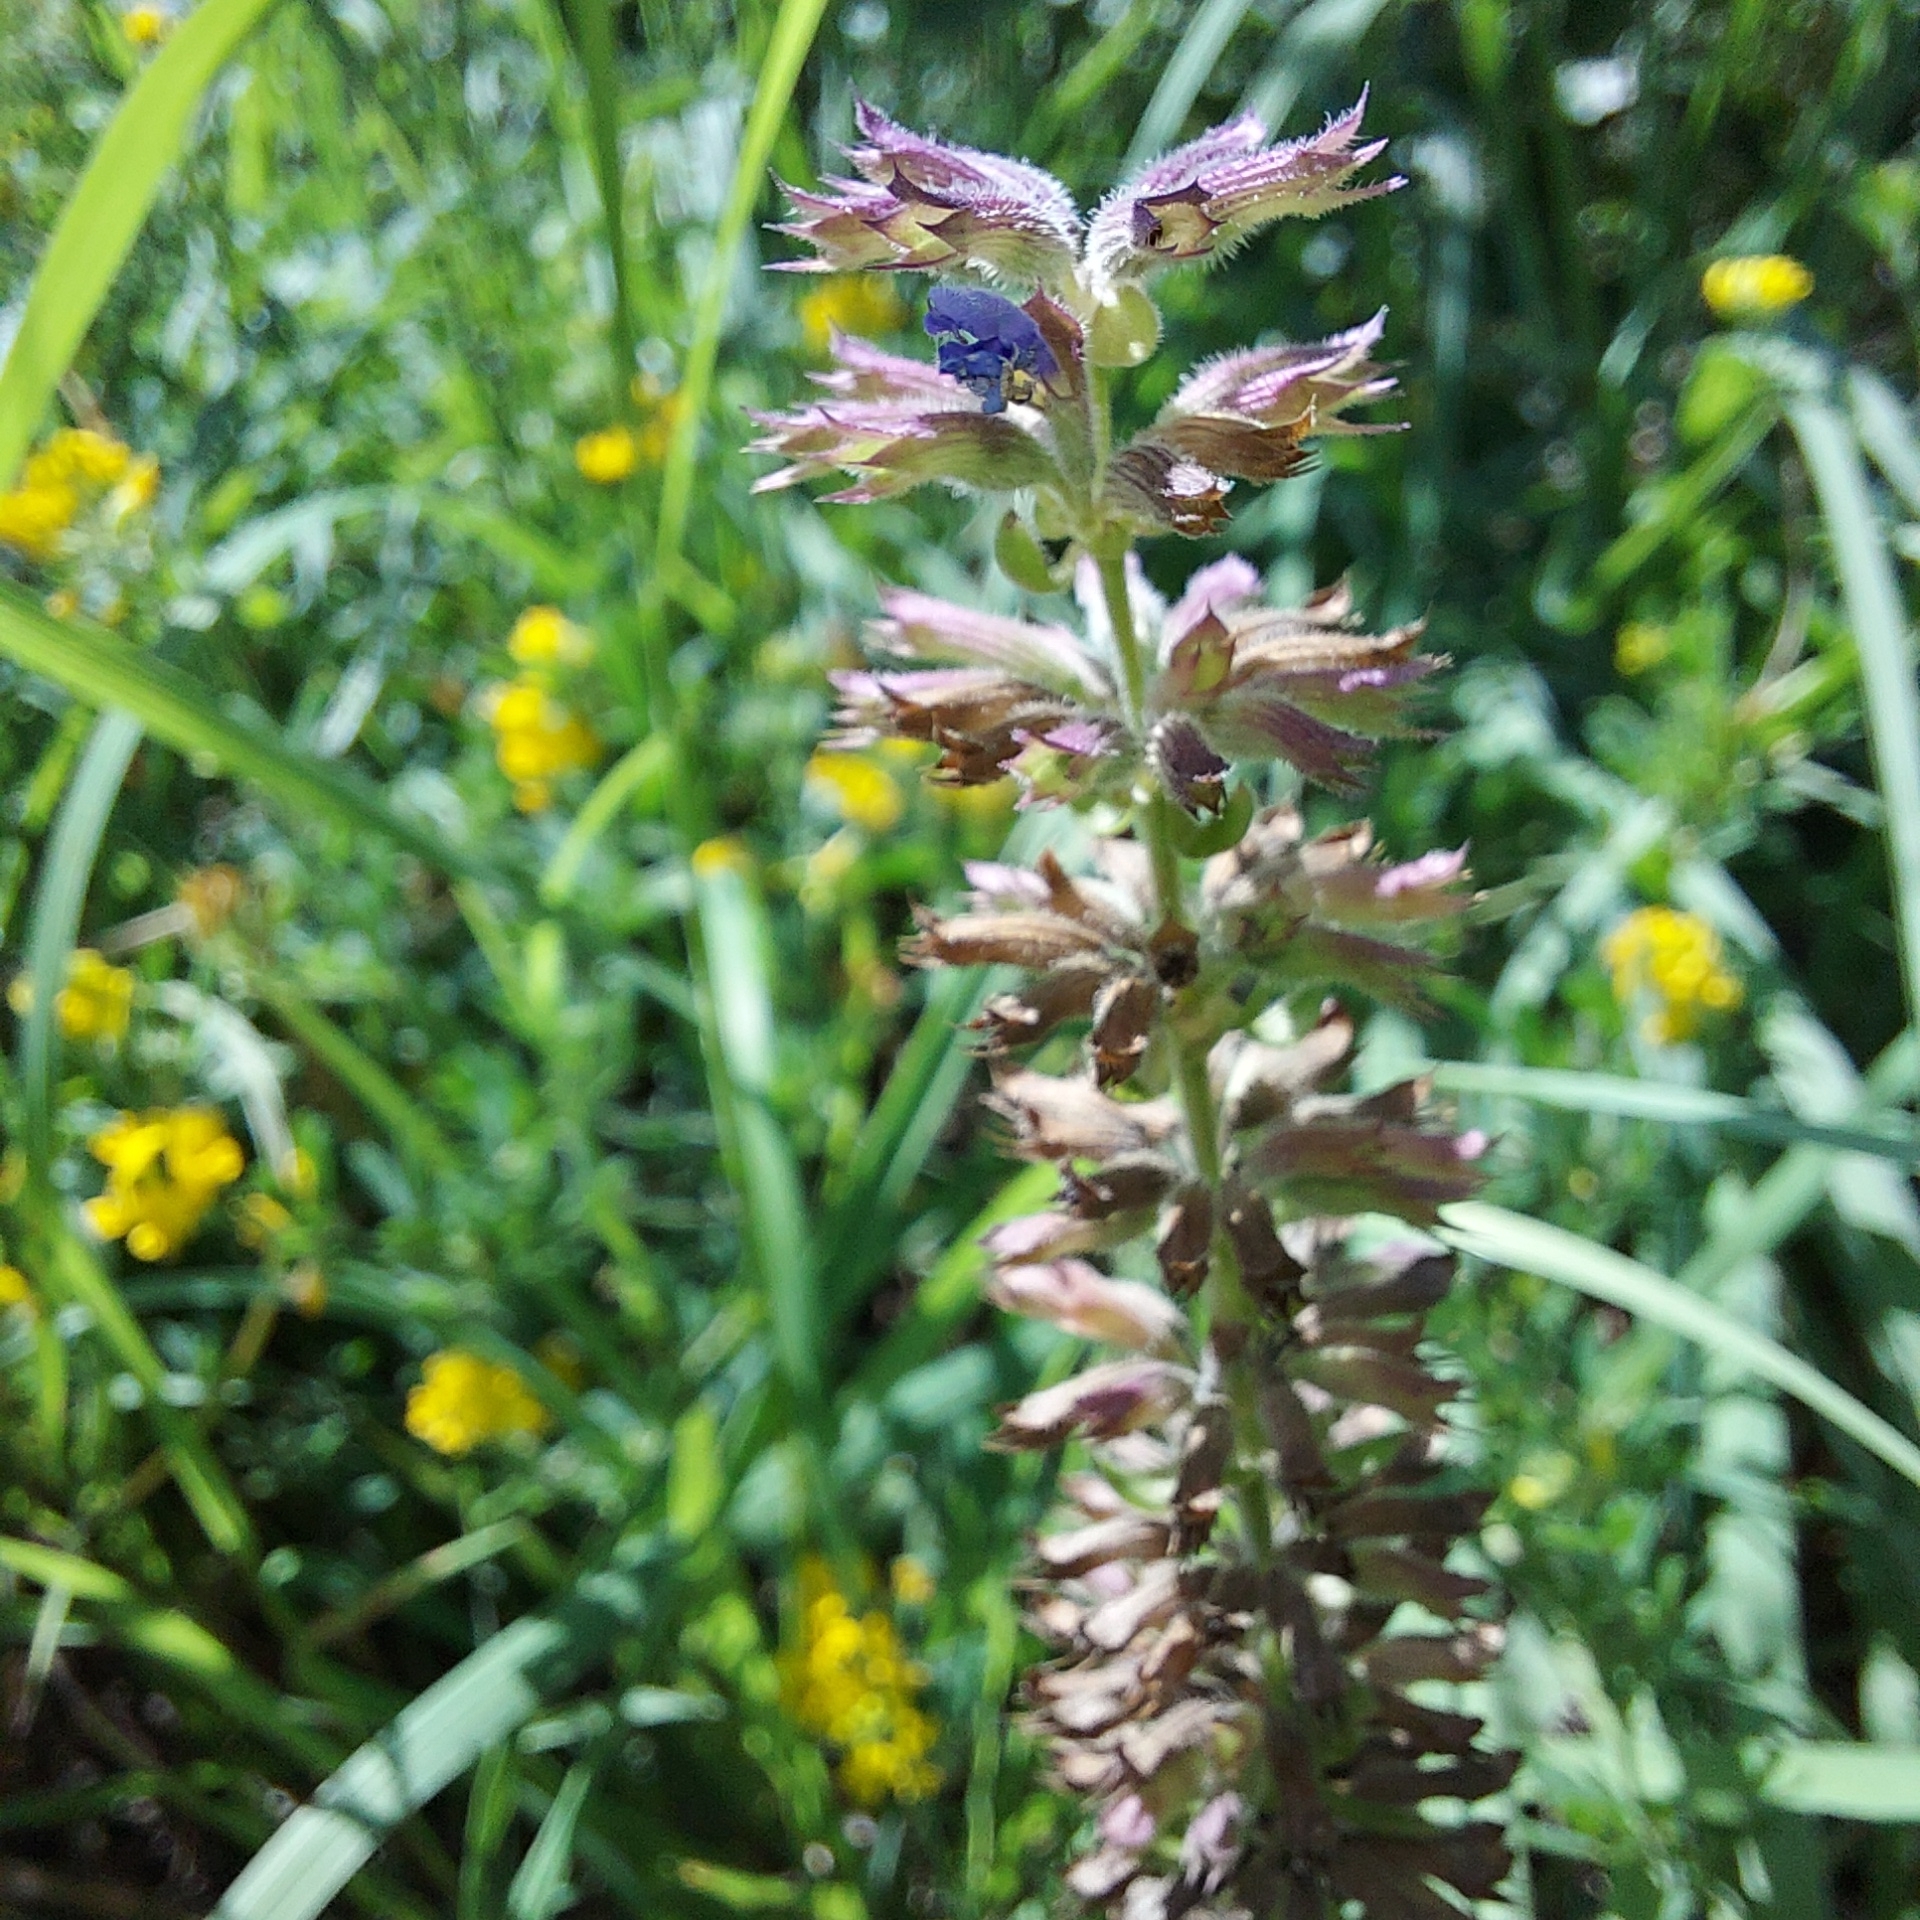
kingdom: Plantae
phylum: Tracheophyta
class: Magnoliopsida
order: Lamiales
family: Lamiaceae
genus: Dracocephalum
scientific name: Dracocephalum nutans
